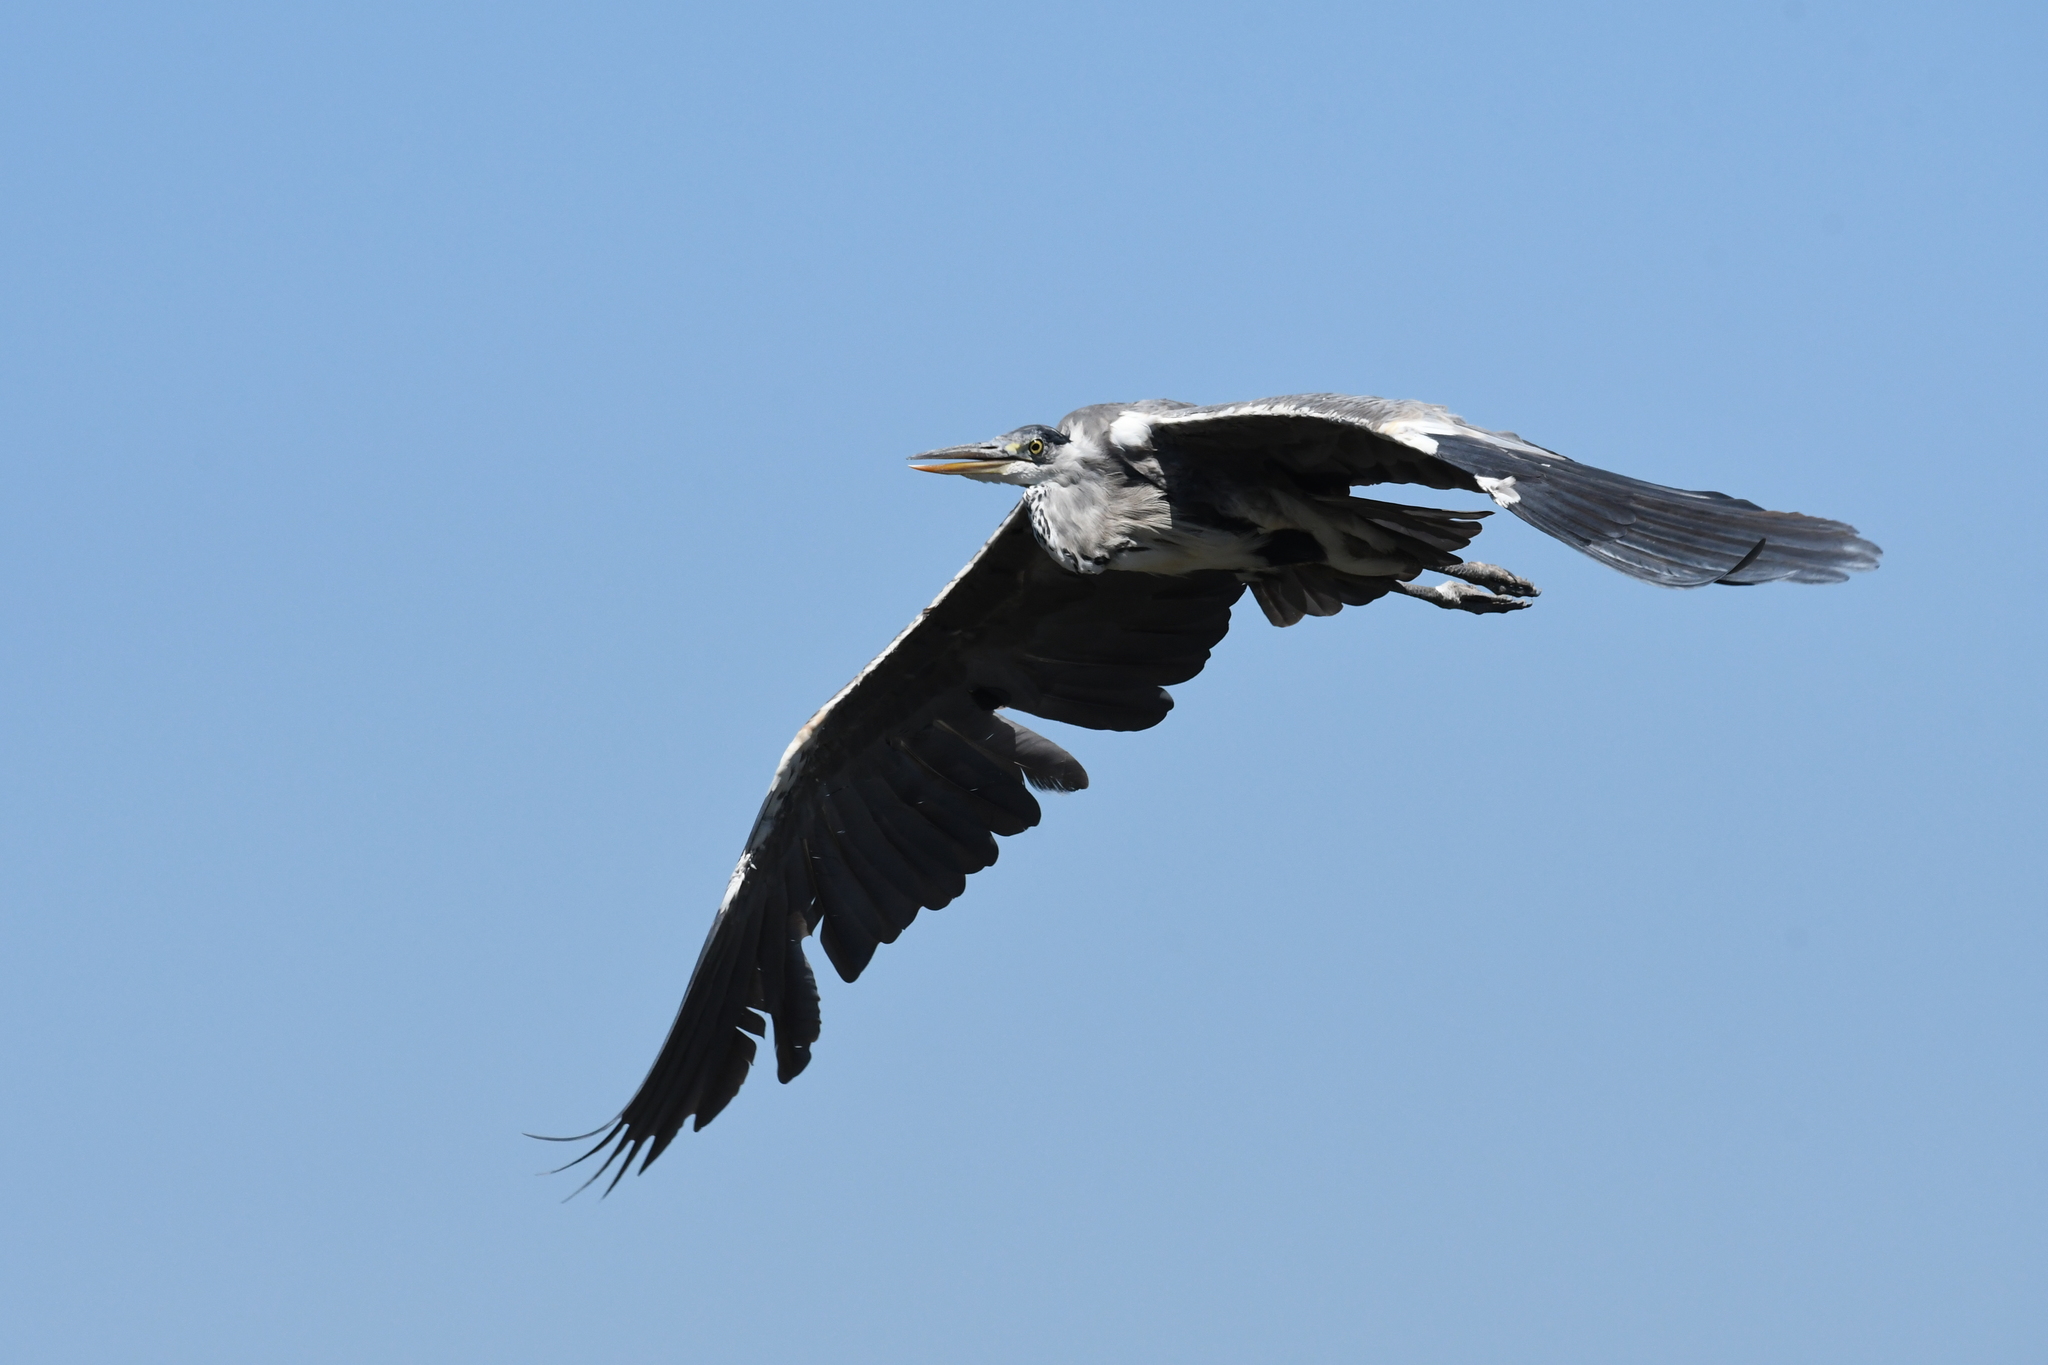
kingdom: Animalia
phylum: Chordata
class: Aves
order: Pelecaniformes
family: Ardeidae
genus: Ardea
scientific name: Ardea cinerea
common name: Grey heron
